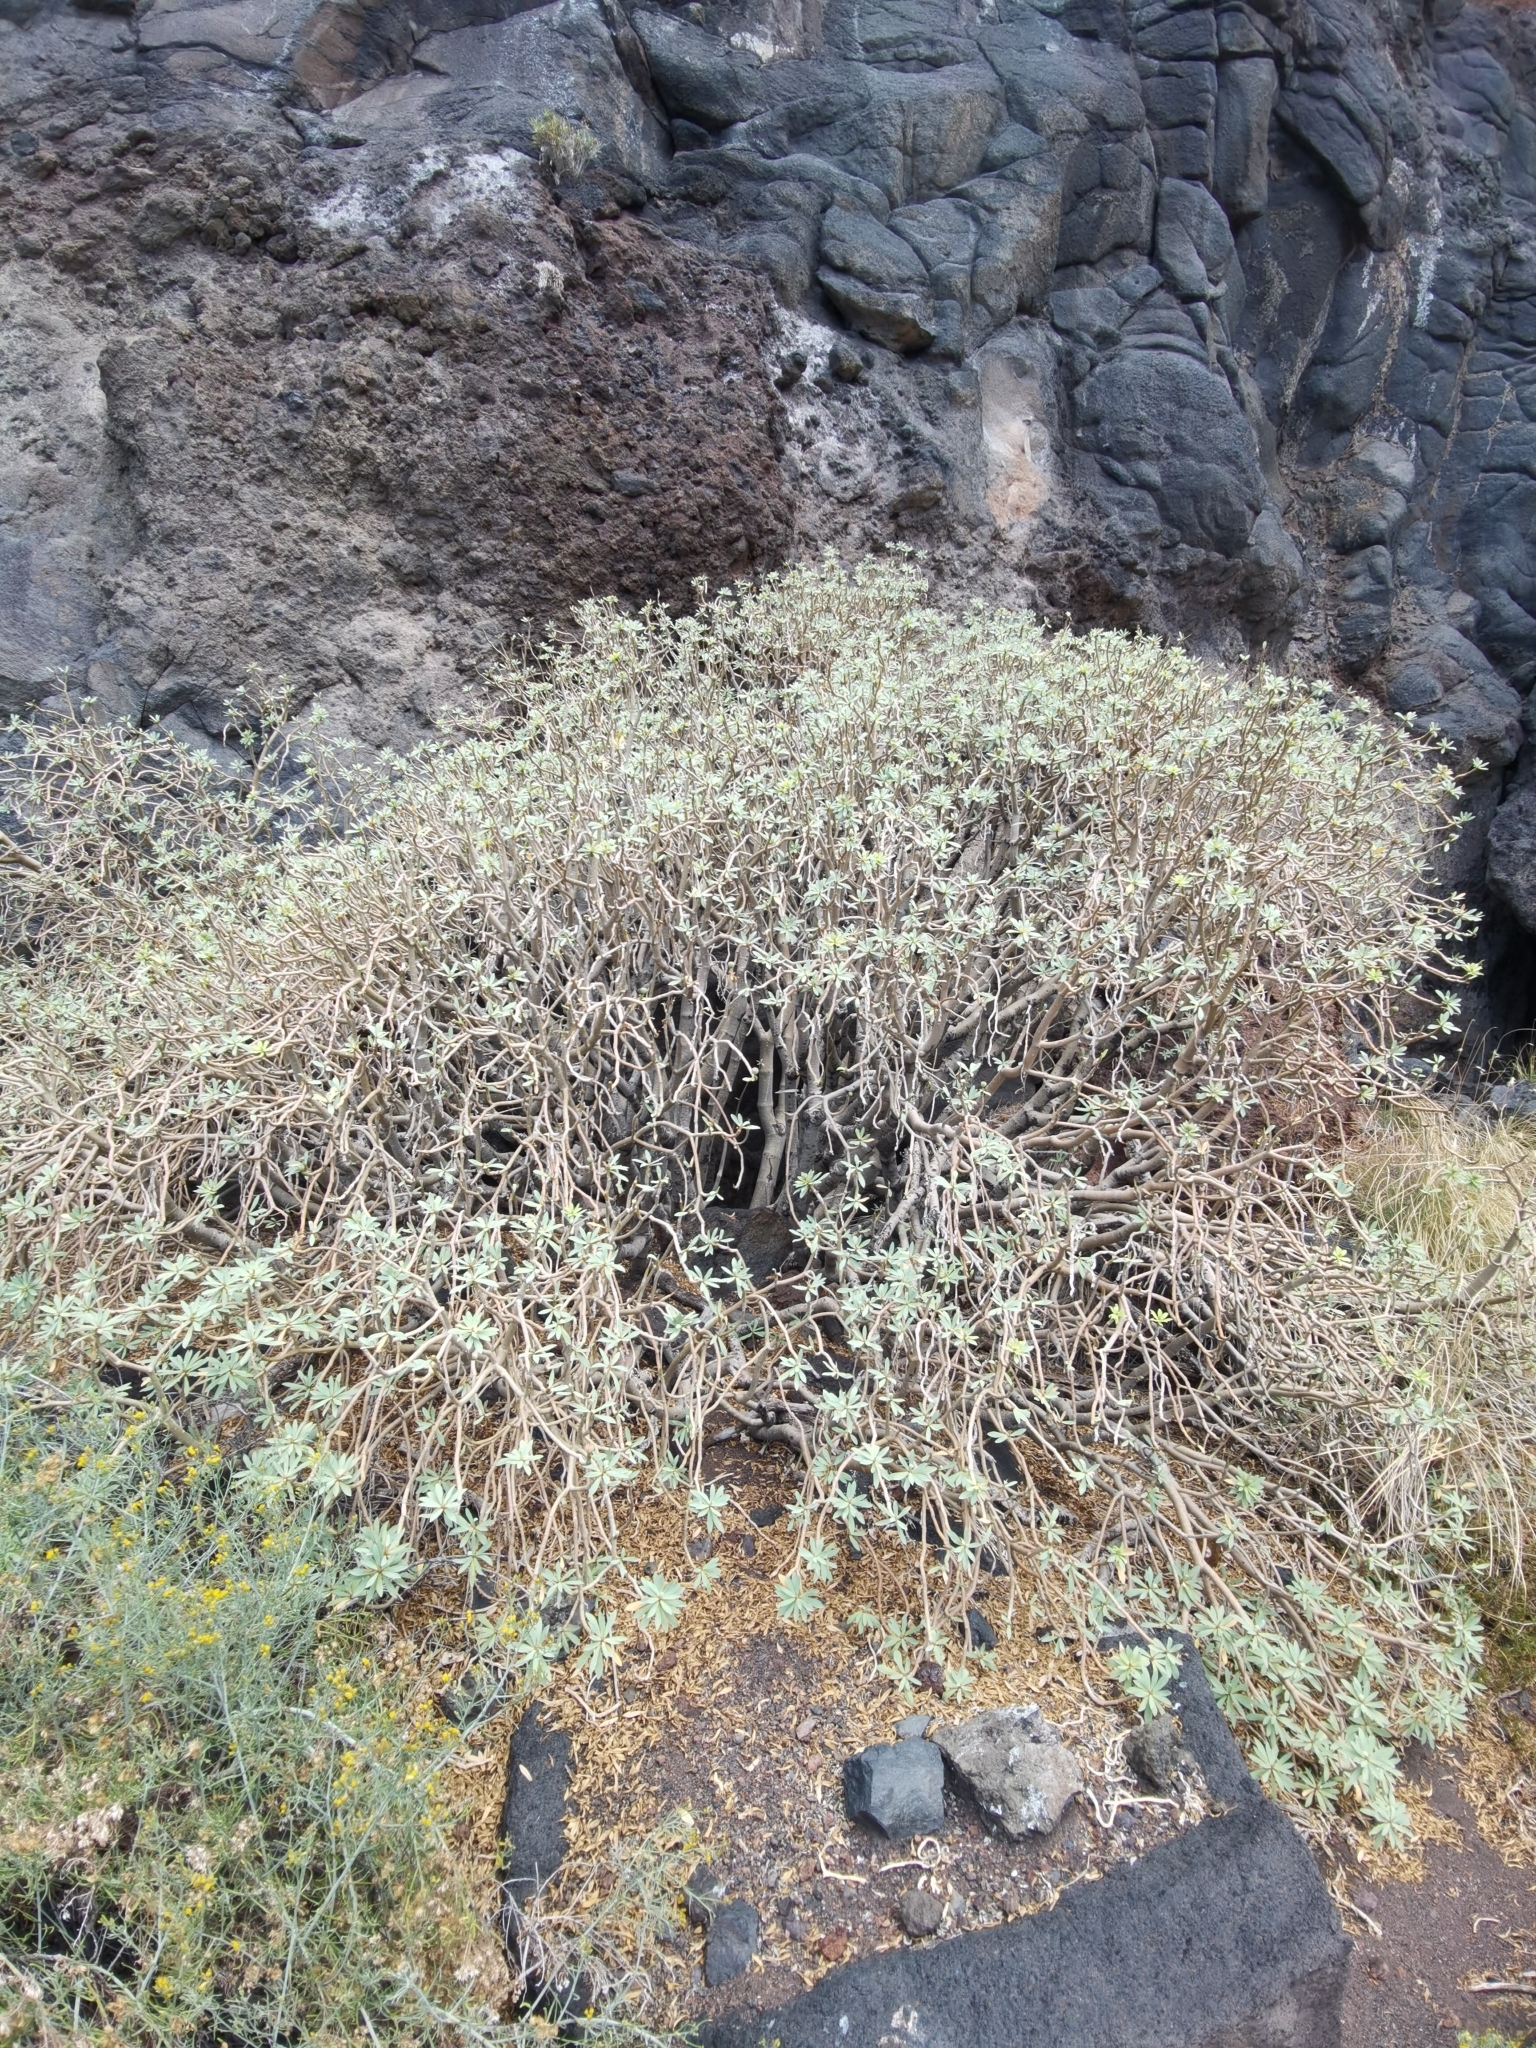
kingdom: Plantae
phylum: Tracheophyta
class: Magnoliopsida
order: Malpighiales
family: Euphorbiaceae
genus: Euphorbia
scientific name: Euphorbia balsamifera
